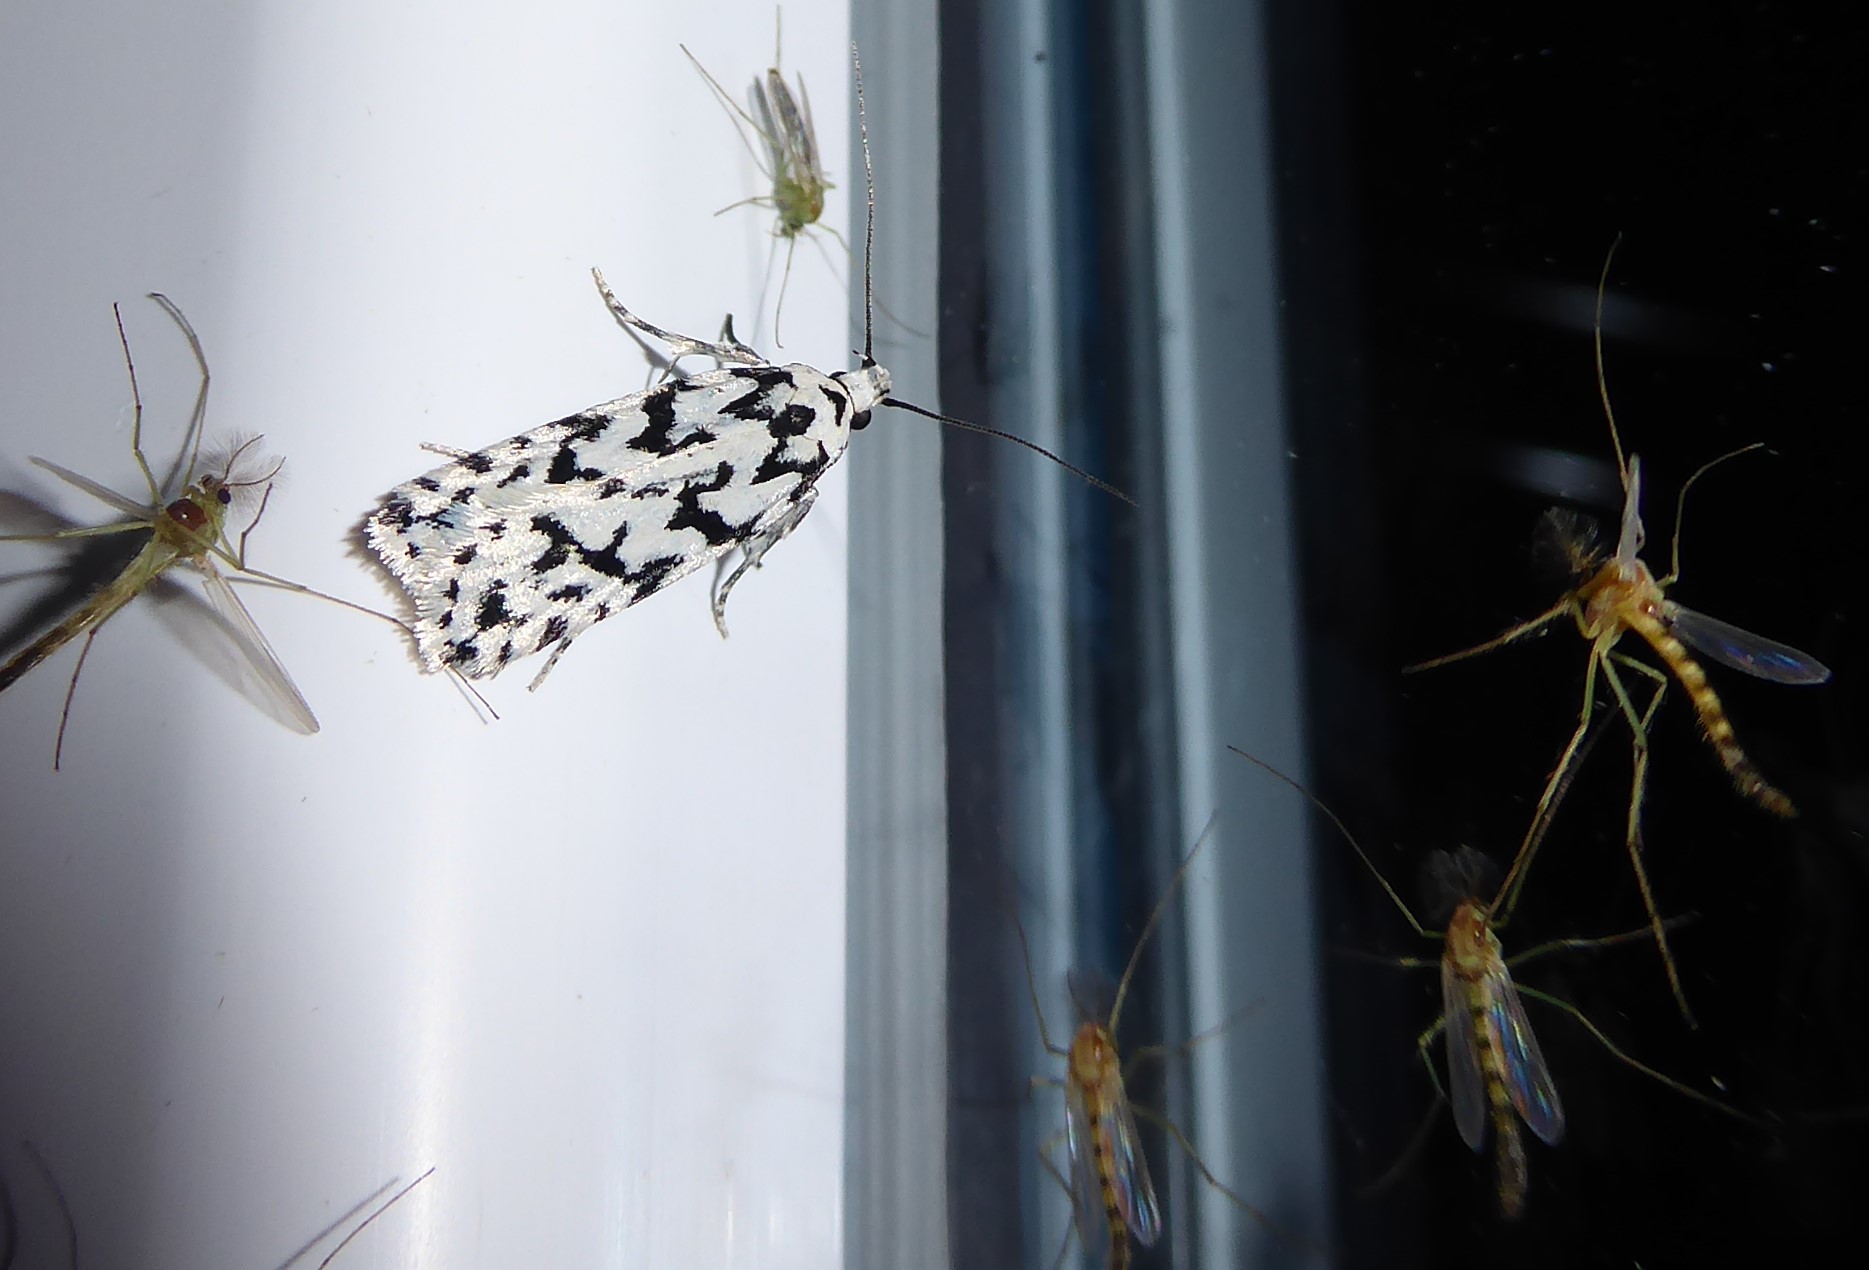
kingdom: Animalia
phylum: Arthropoda
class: Insecta
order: Lepidoptera
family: Oecophoridae
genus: Izatha
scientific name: Izatha katadiktya
